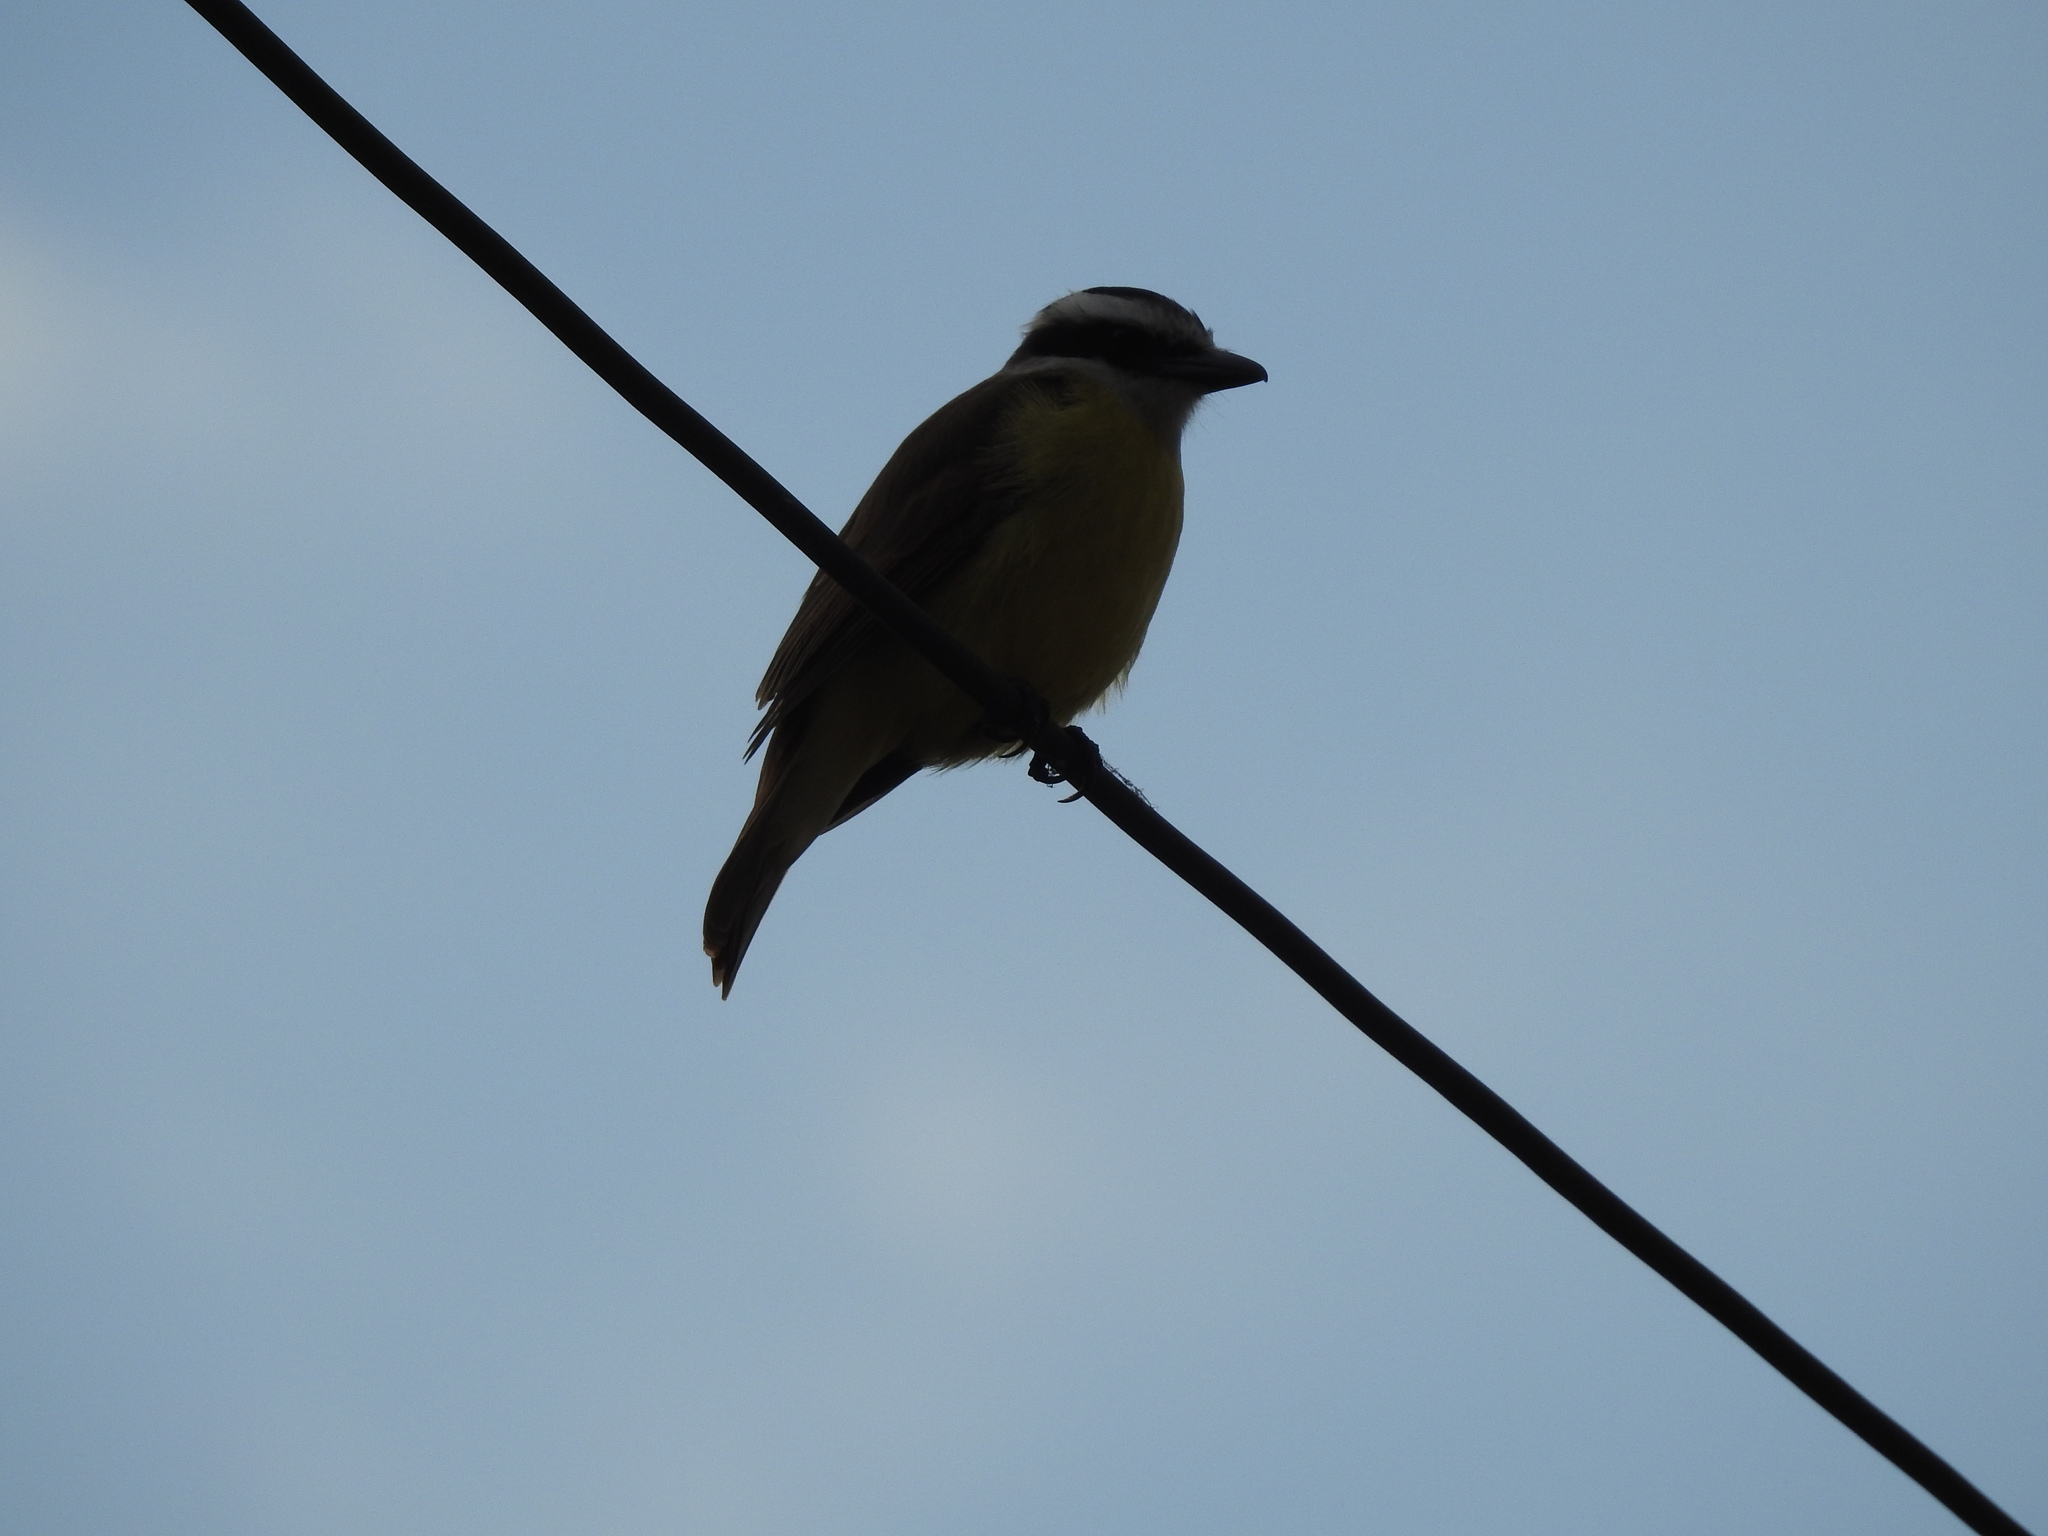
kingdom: Animalia
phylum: Chordata
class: Aves
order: Passeriformes
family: Tyrannidae
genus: Pitangus
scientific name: Pitangus sulphuratus
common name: Great kiskadee
